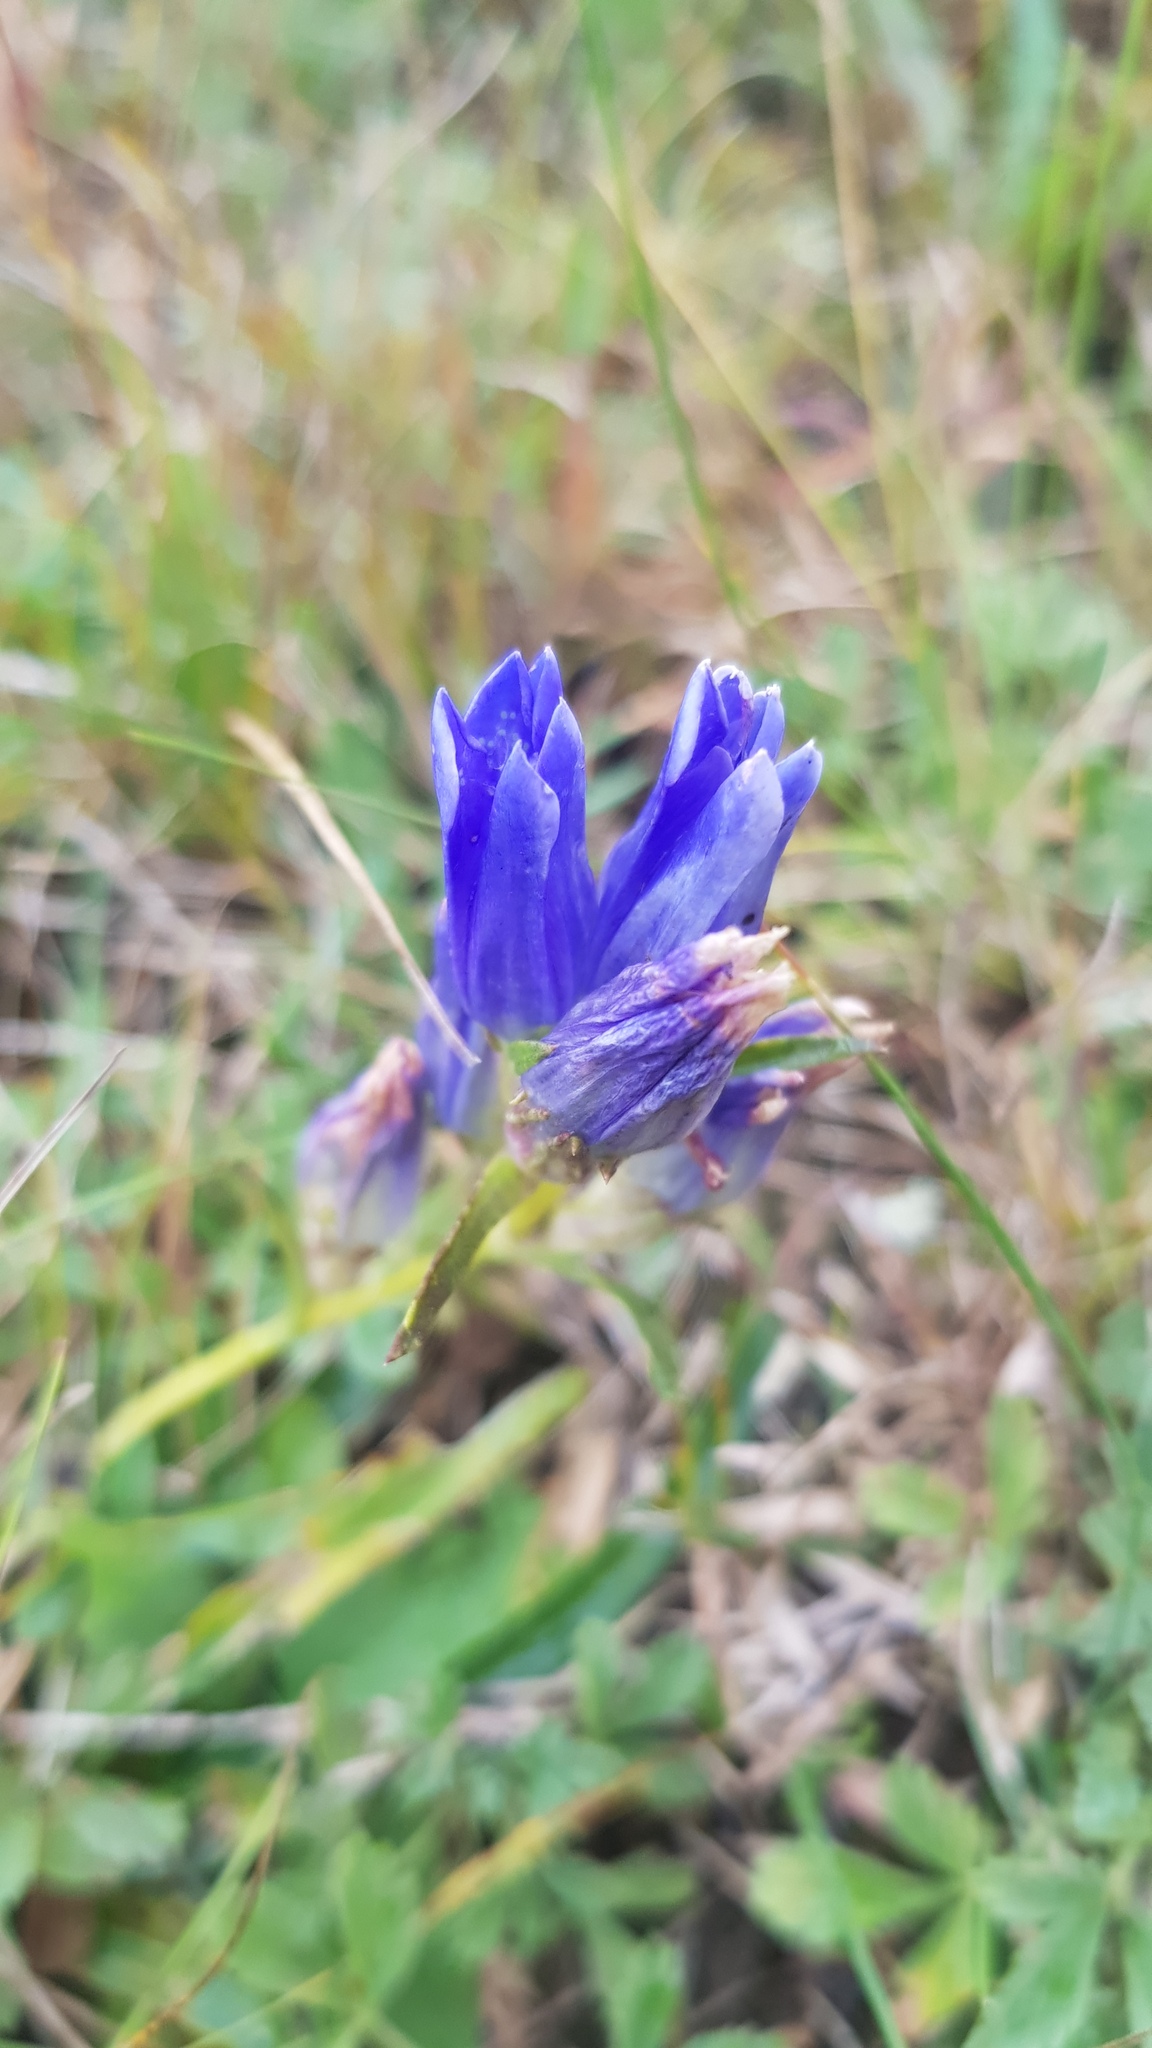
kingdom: Plantae
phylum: Tracheophyta
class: Magnoliopsida
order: Gentianales
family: Gentianaceae
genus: Gentiana
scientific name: Gentiana decumbens
